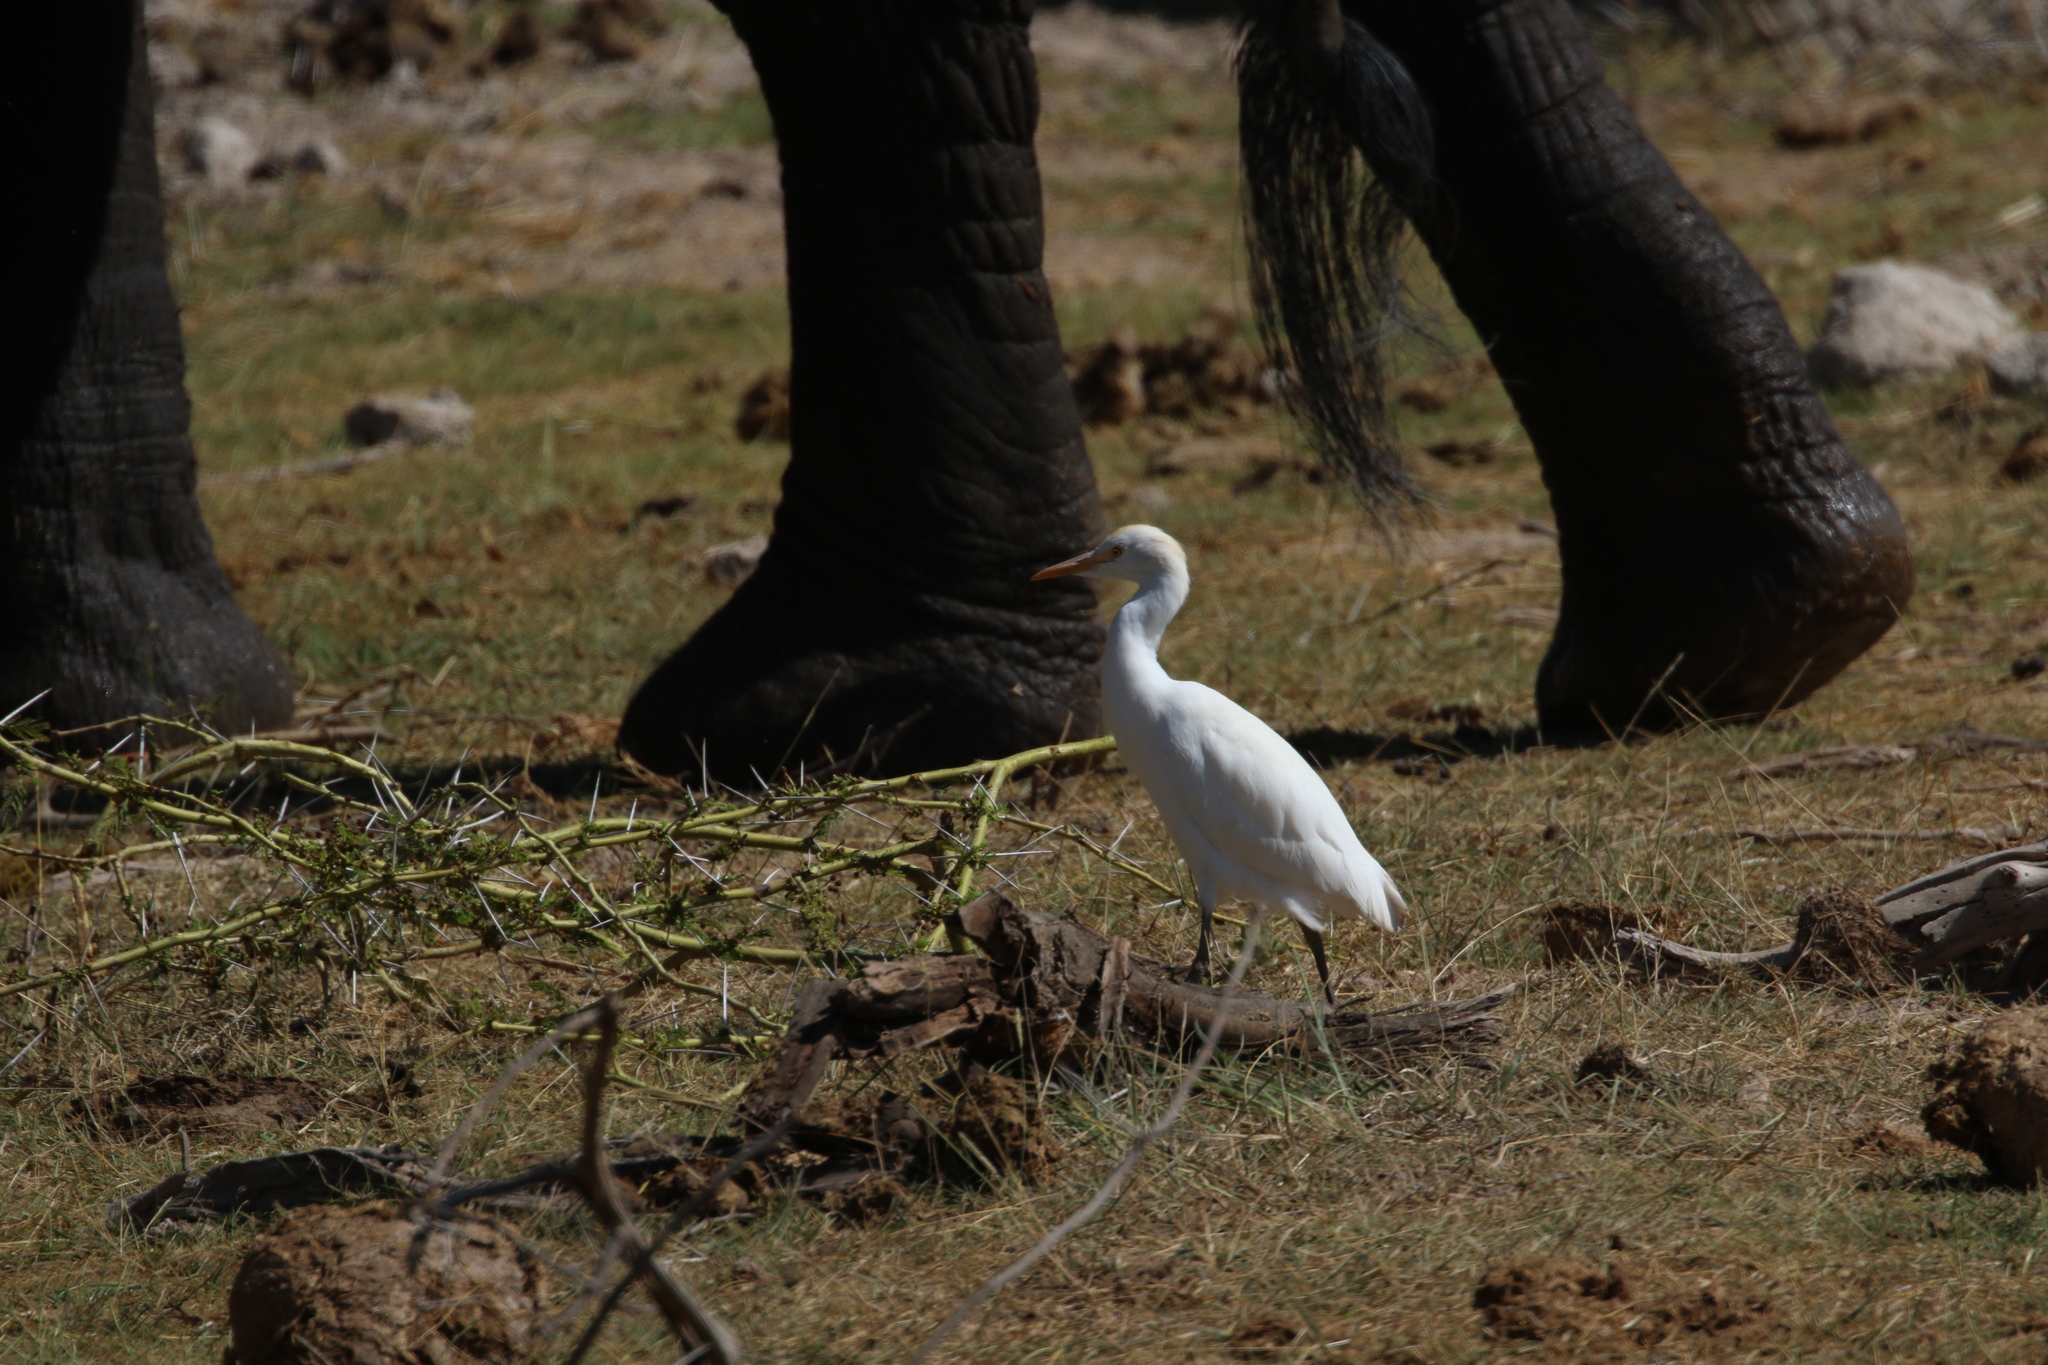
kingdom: Animalia
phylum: Chordata
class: Aves
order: Pelecaniformes
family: Ardeidae
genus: Bubulcus
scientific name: Bubulcus ibis
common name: Cattle egret
